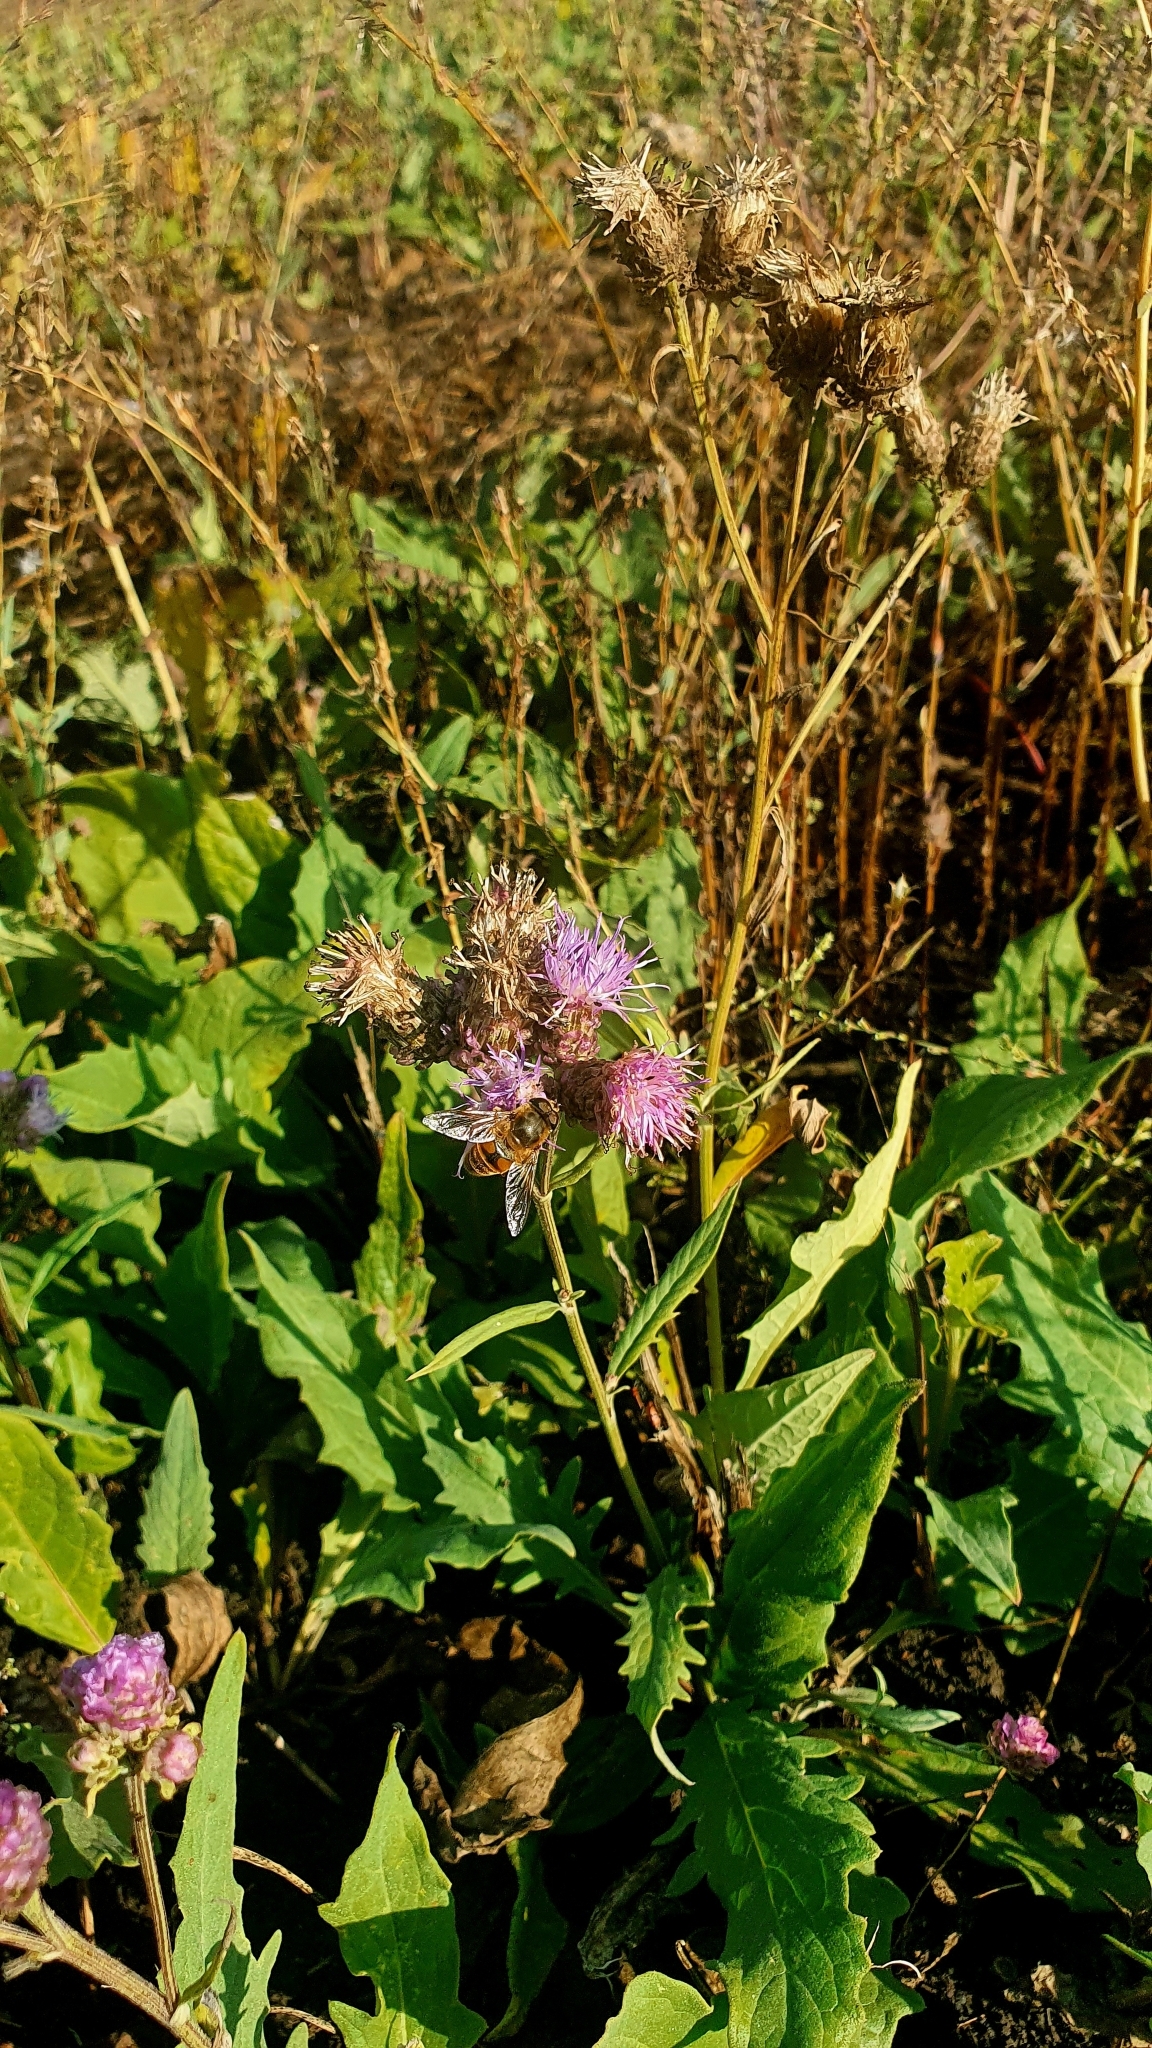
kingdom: Plantae
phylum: Tracheophyta
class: Magnoliopsida
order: Asterales
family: Asteraceae
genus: Saussurea
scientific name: Saussurea amara
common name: Alberta sawwort
